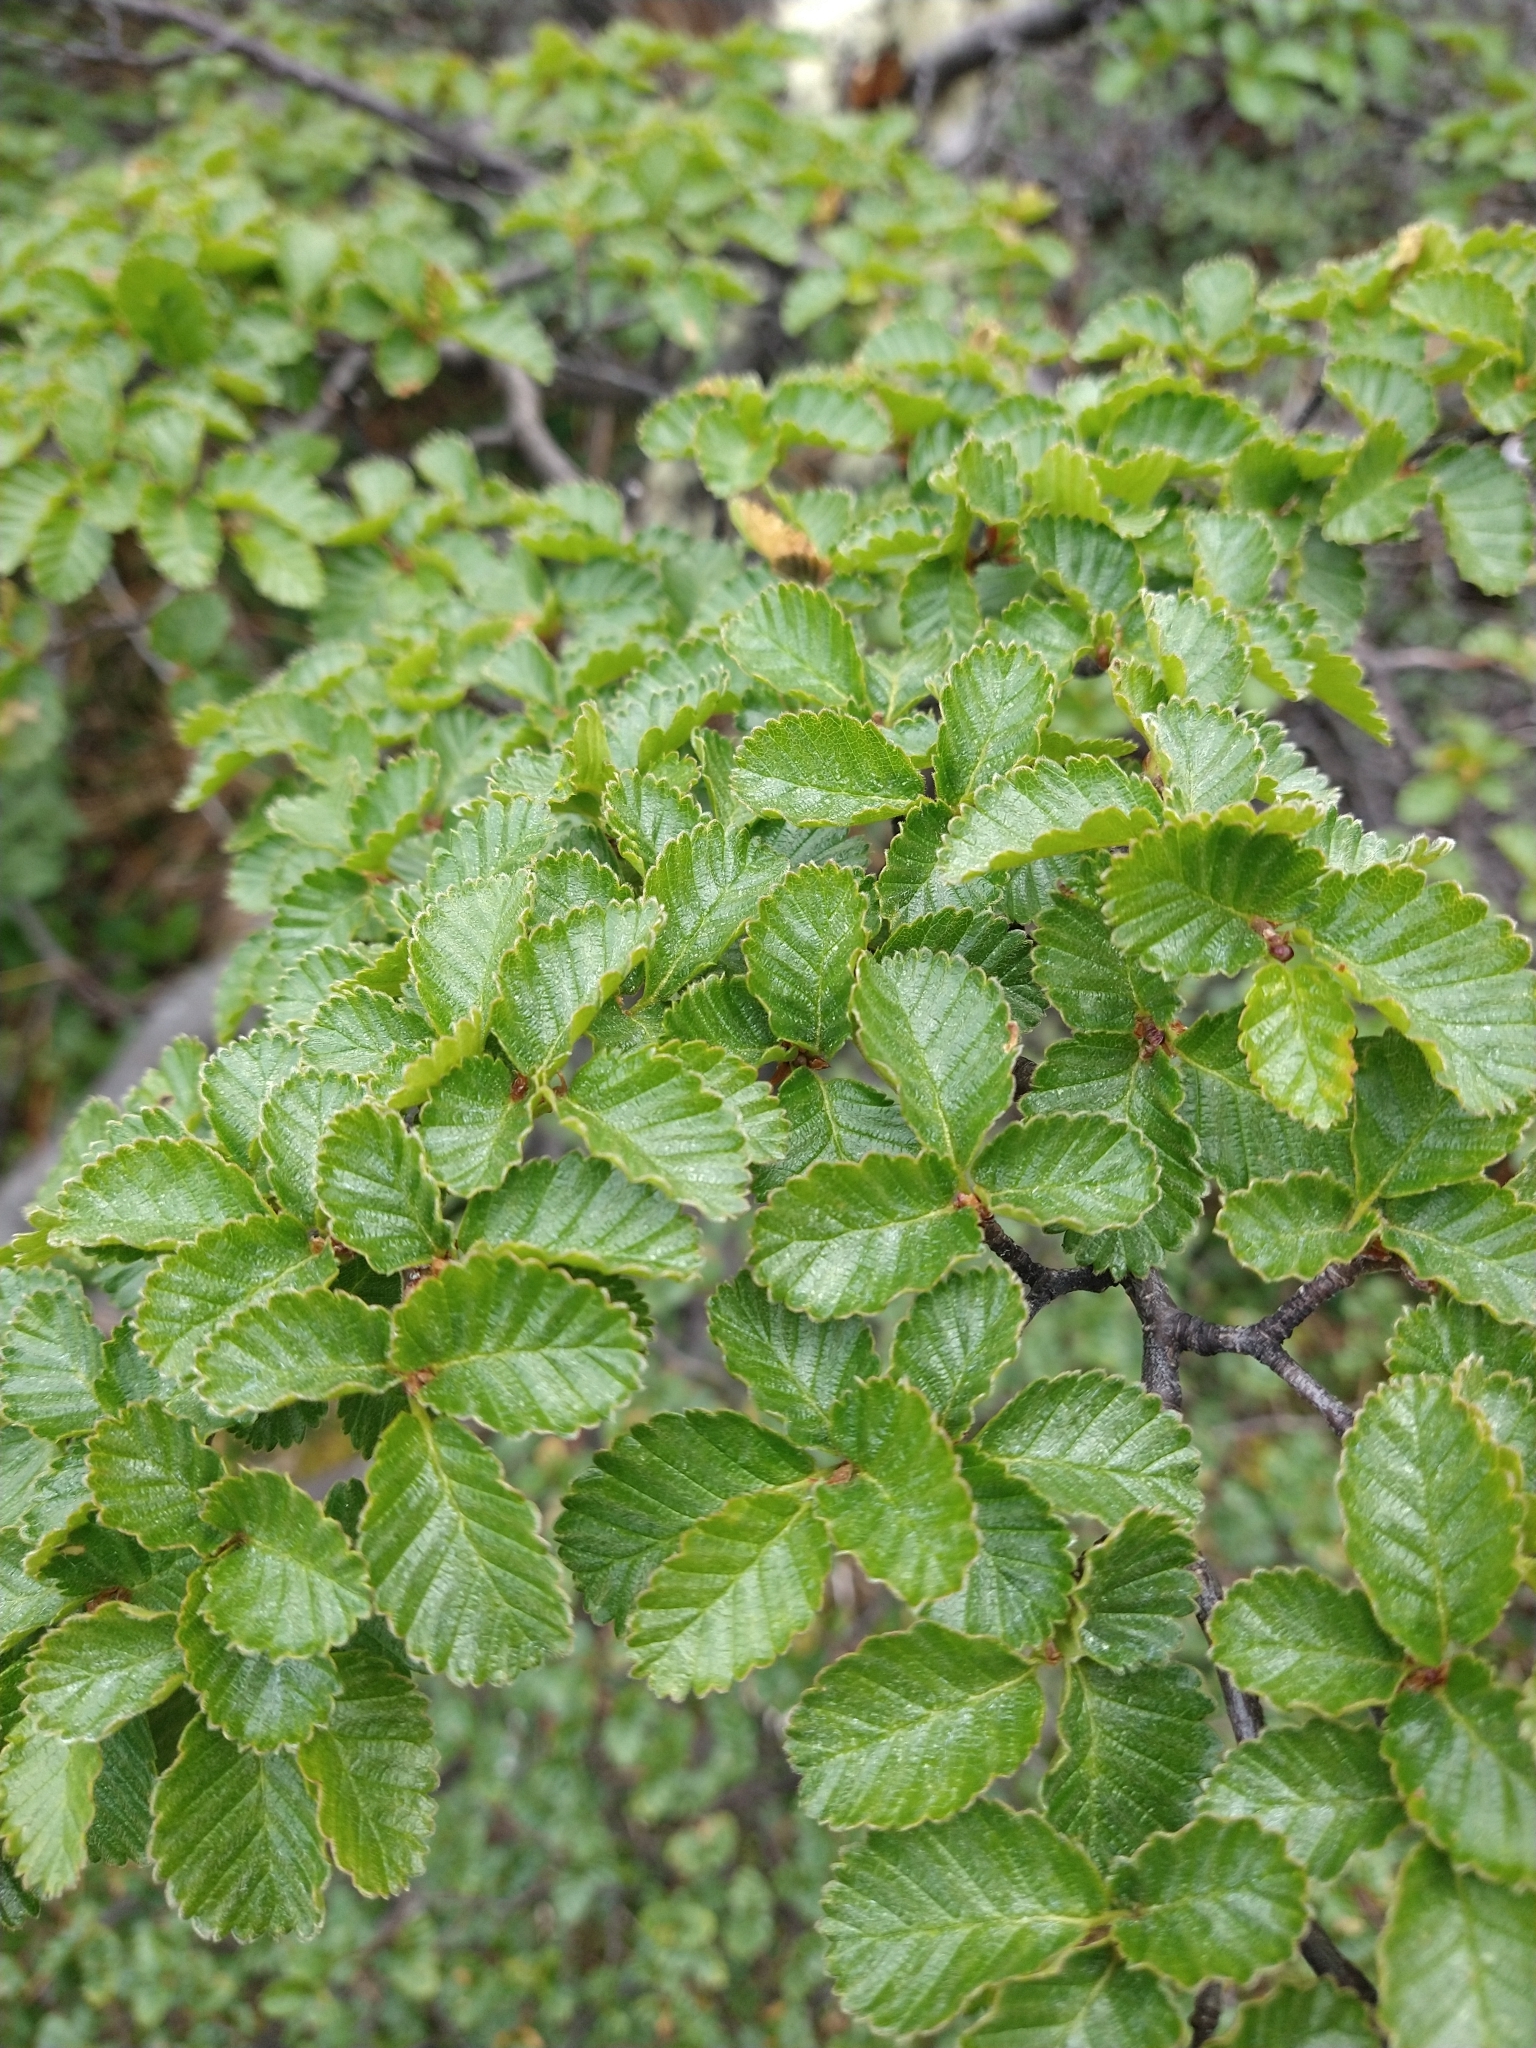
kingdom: Plantae
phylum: Tracheophyta
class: Magnoliopsida
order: Fagales
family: Nothofagaceae
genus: Nothofagus
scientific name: Nothofagus pumilio
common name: Lenga beech
